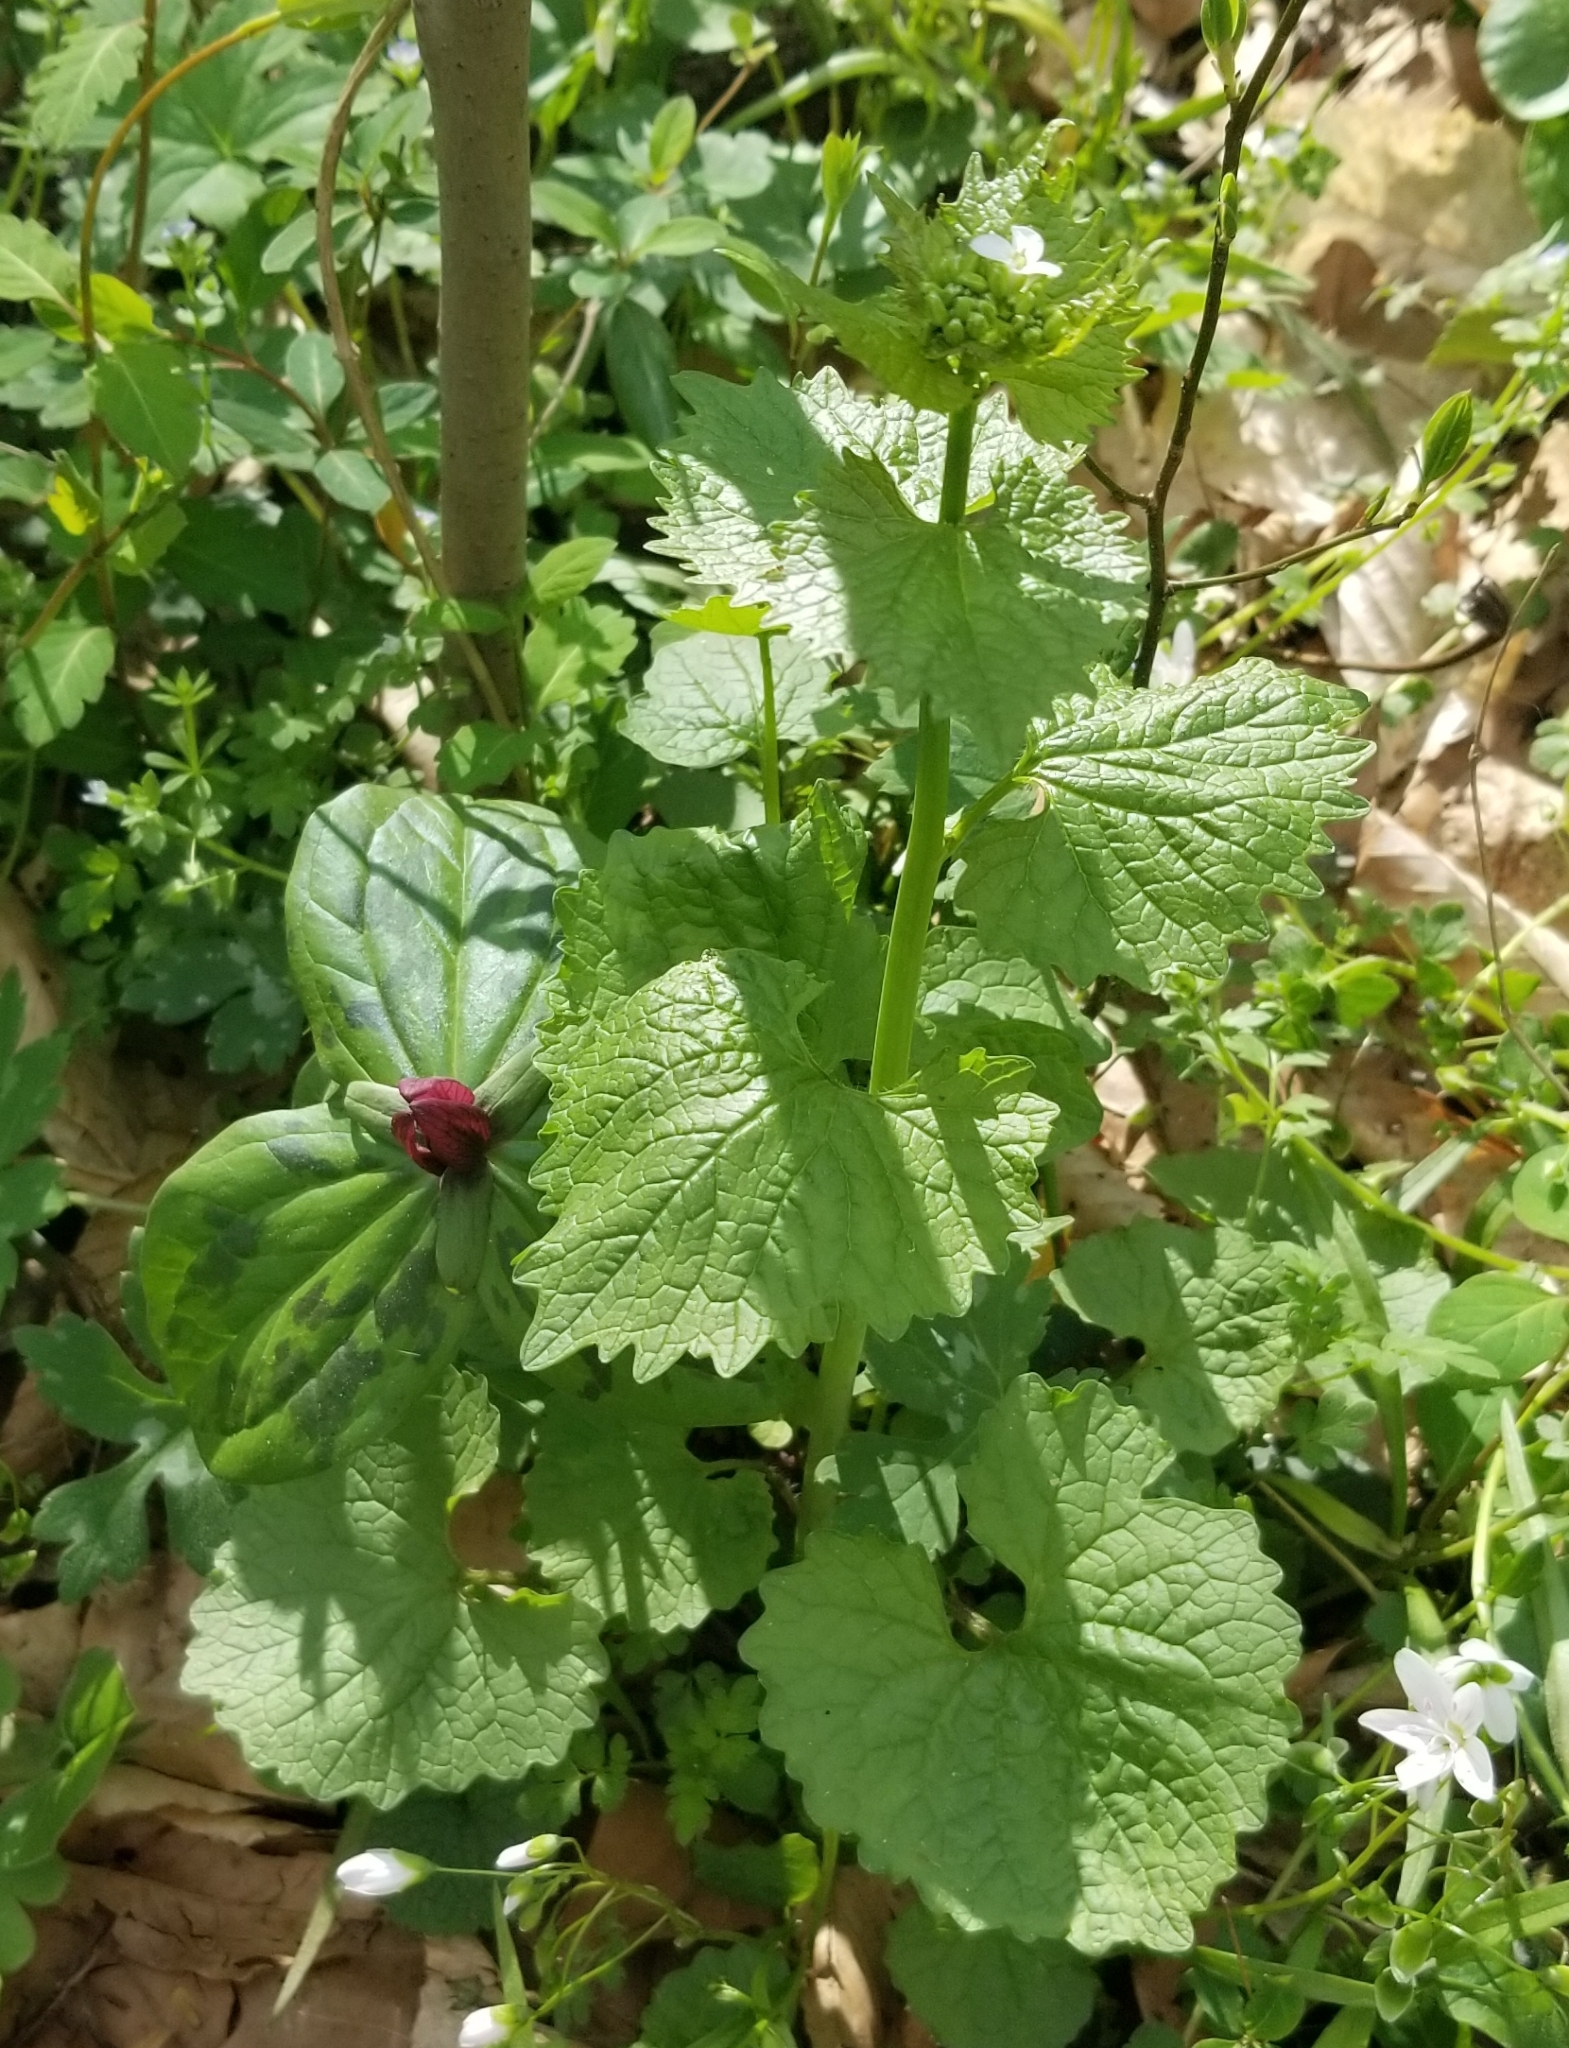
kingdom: Plantae
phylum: Tracheophyta
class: Magnoliopsida
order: Brassicales
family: Brassicaceae
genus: Alliaria
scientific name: Alliaria petiolata
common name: Garlic mustard
